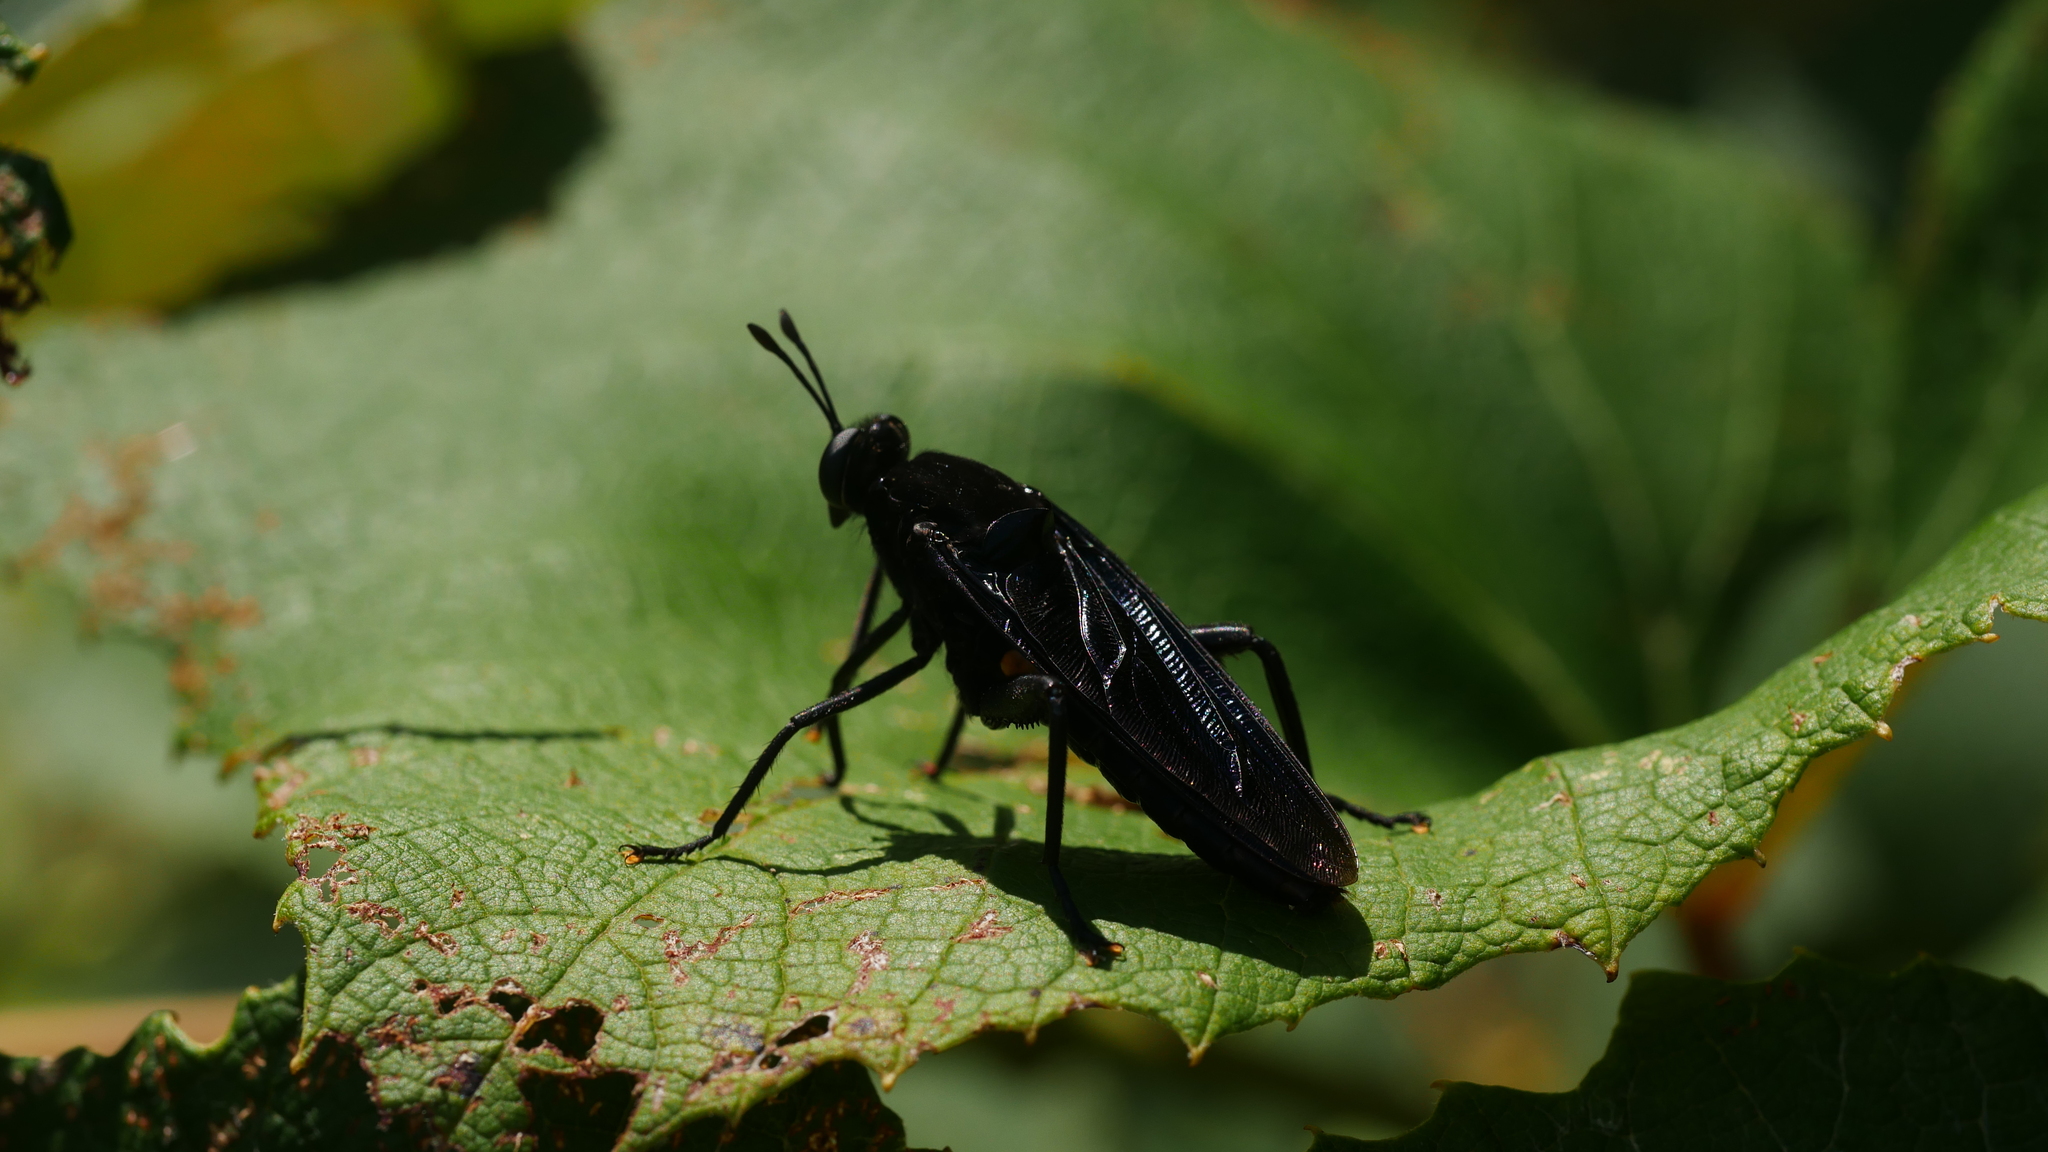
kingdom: Animalia
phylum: Arthropoda
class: Insecta
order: Diptera
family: Mydidae
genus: Mydas
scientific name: Mydas clavatus
